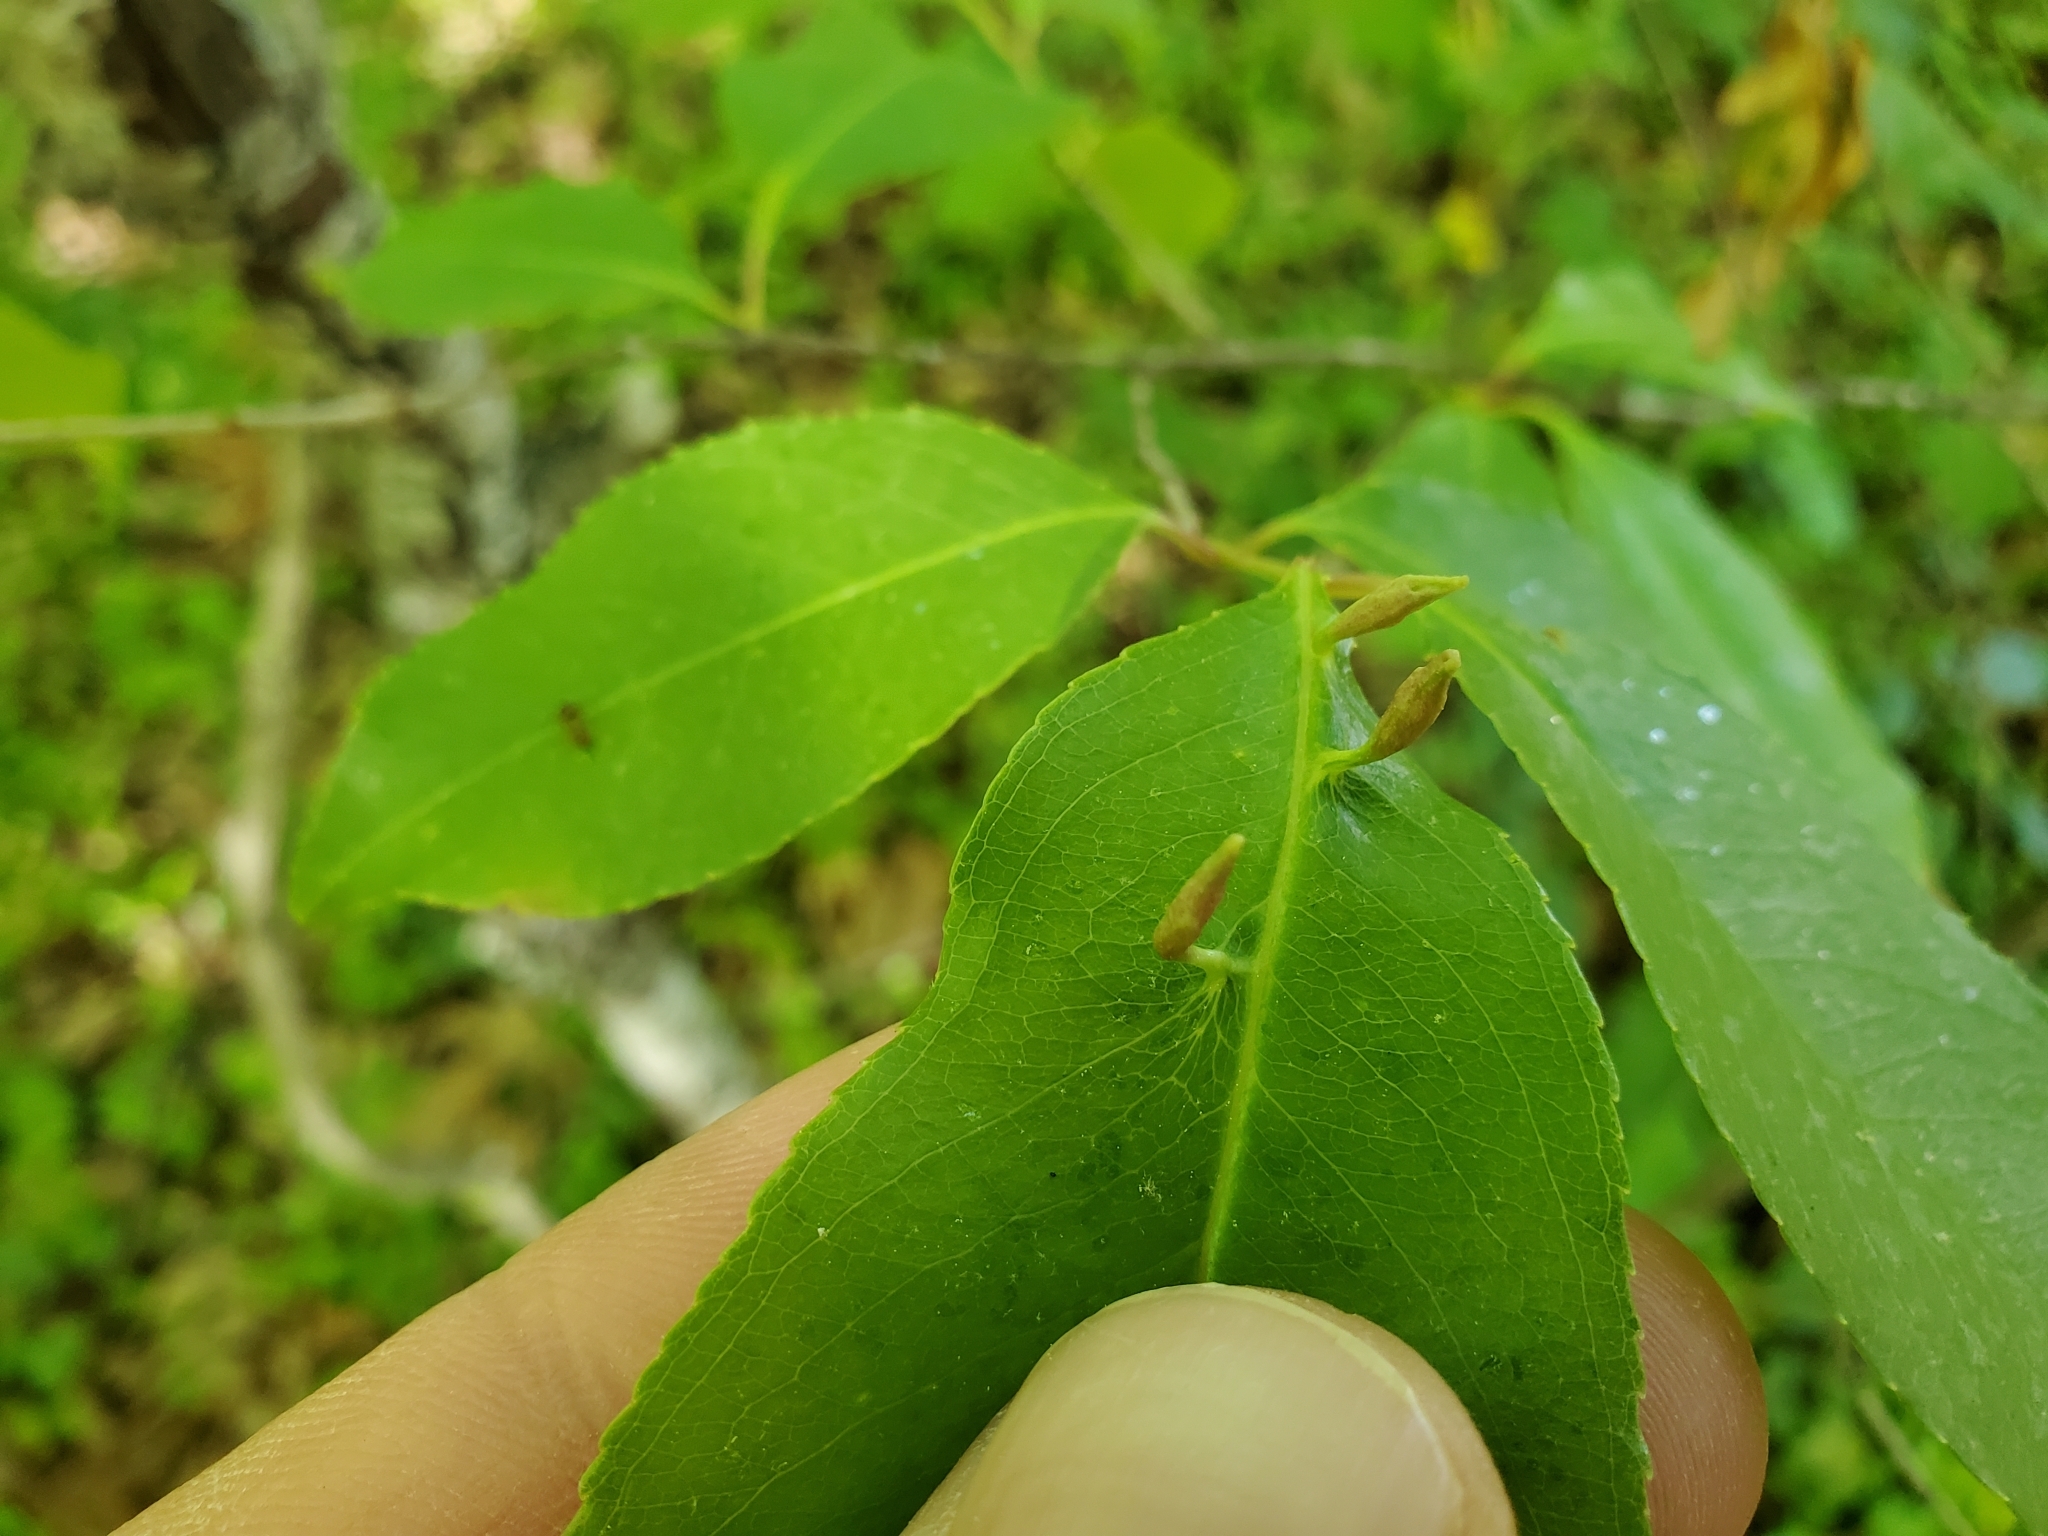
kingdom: Animalia
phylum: Arthropoda
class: Arachnida
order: Trombidiformes
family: Eriophyidae
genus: Eriophyes
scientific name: Eriophyes
